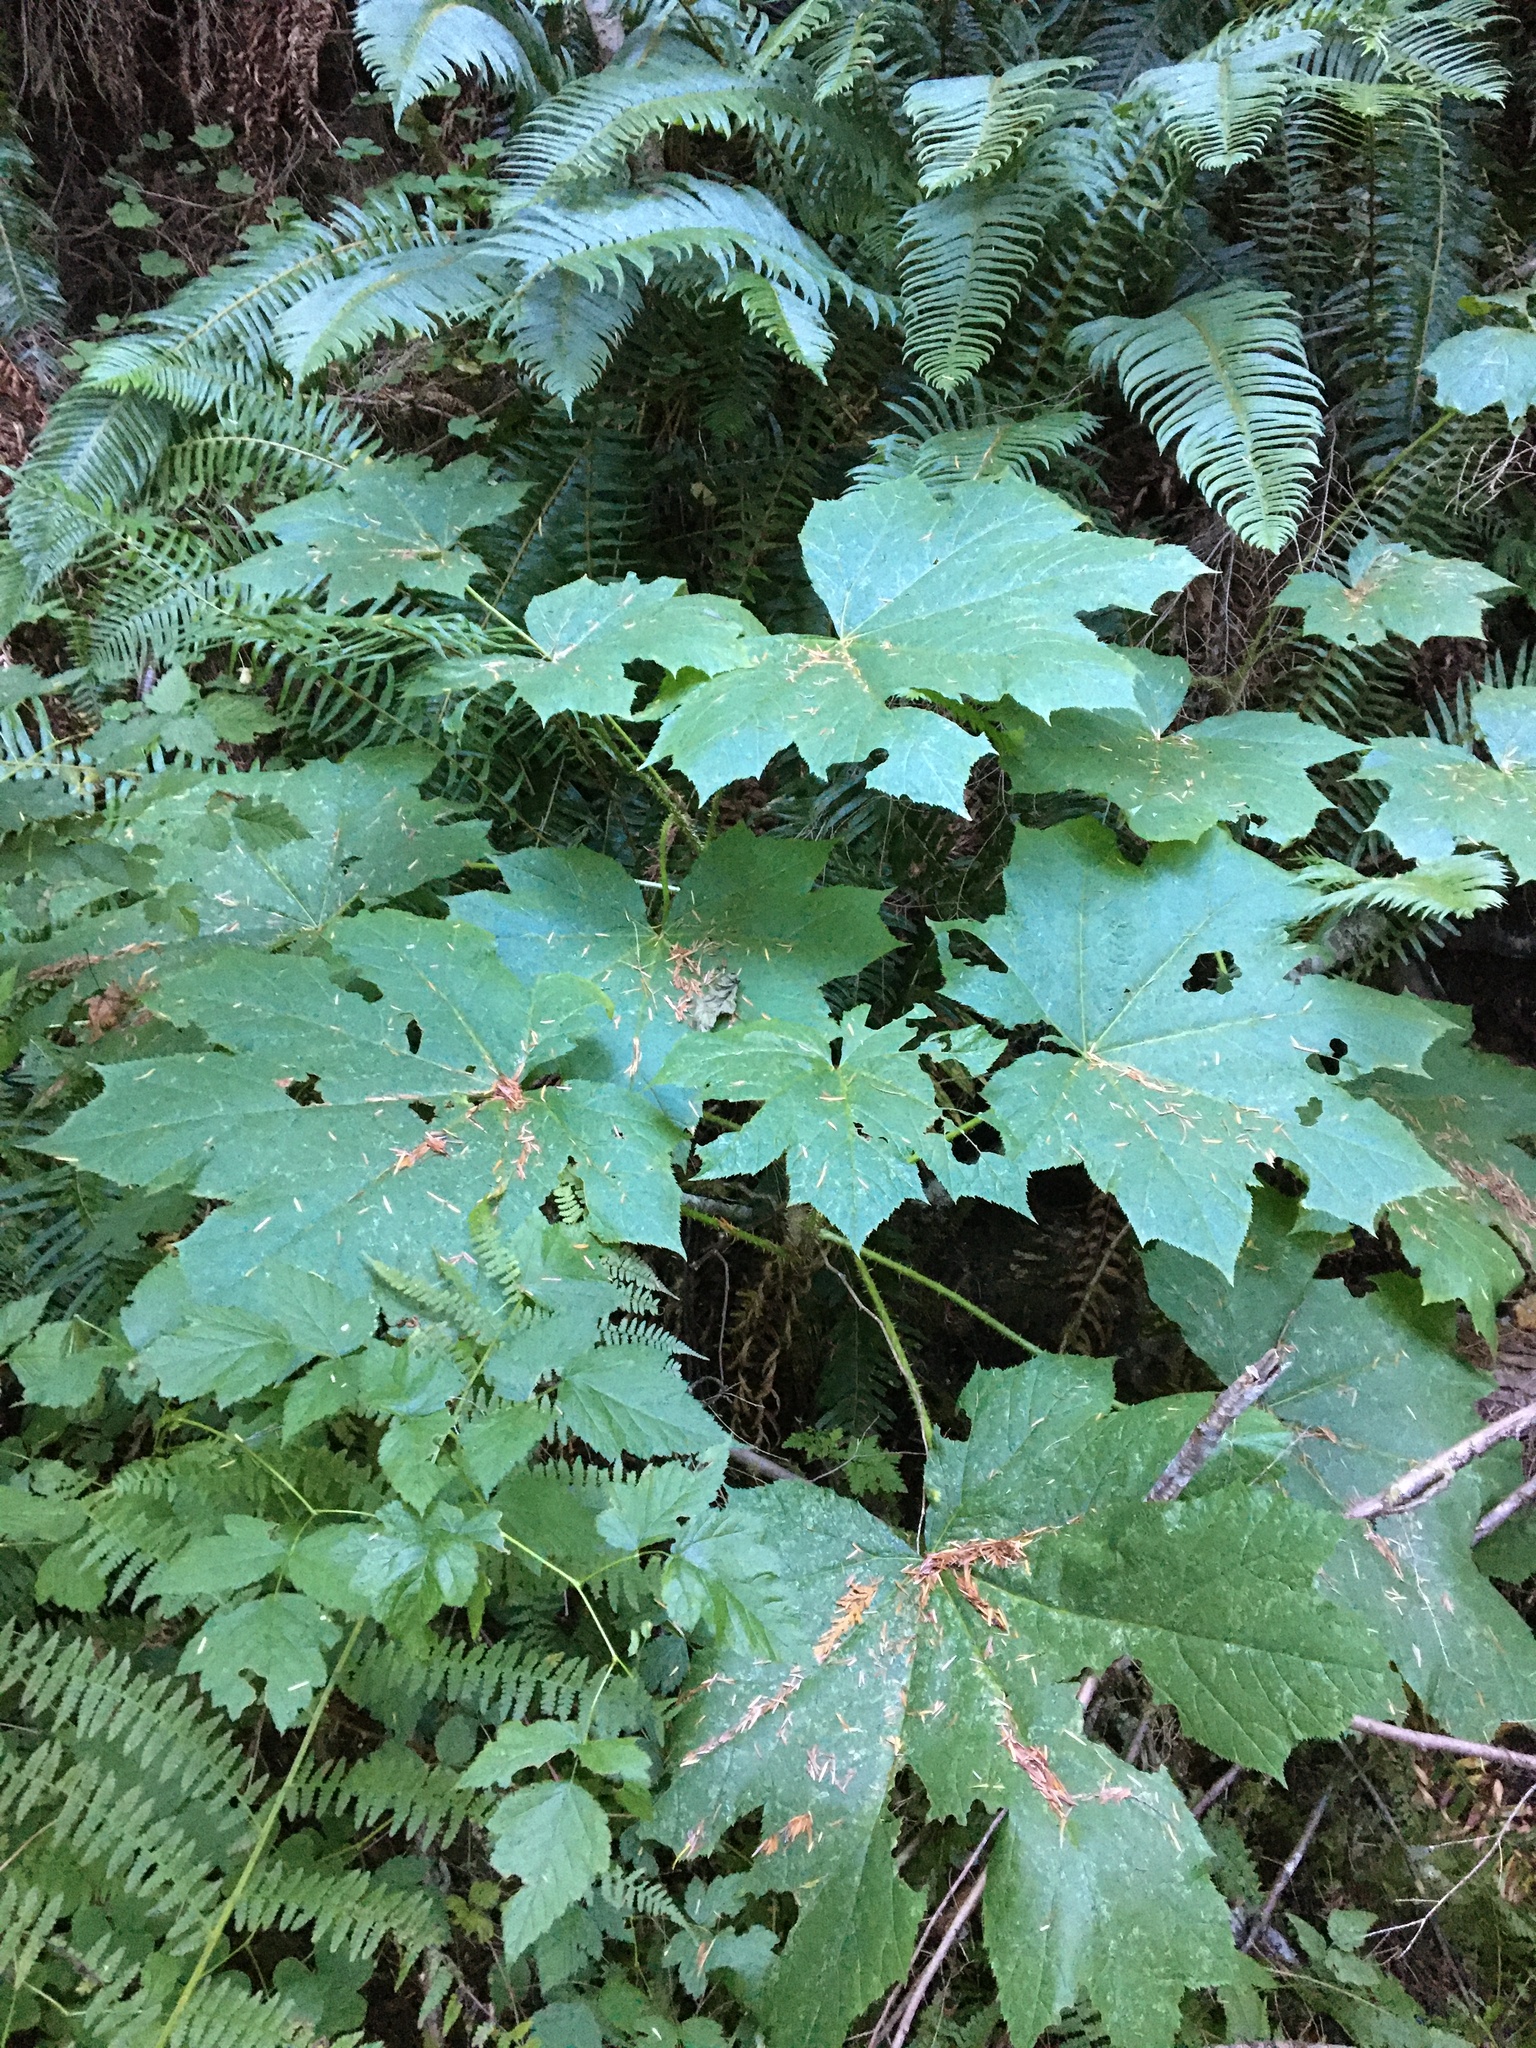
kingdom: Plantae
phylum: Tracheophyta
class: Magnoliopsida
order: Apiales
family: Araliaceae
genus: Oplopanax
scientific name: Oplopanax horridus
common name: Devil's walking-stick
